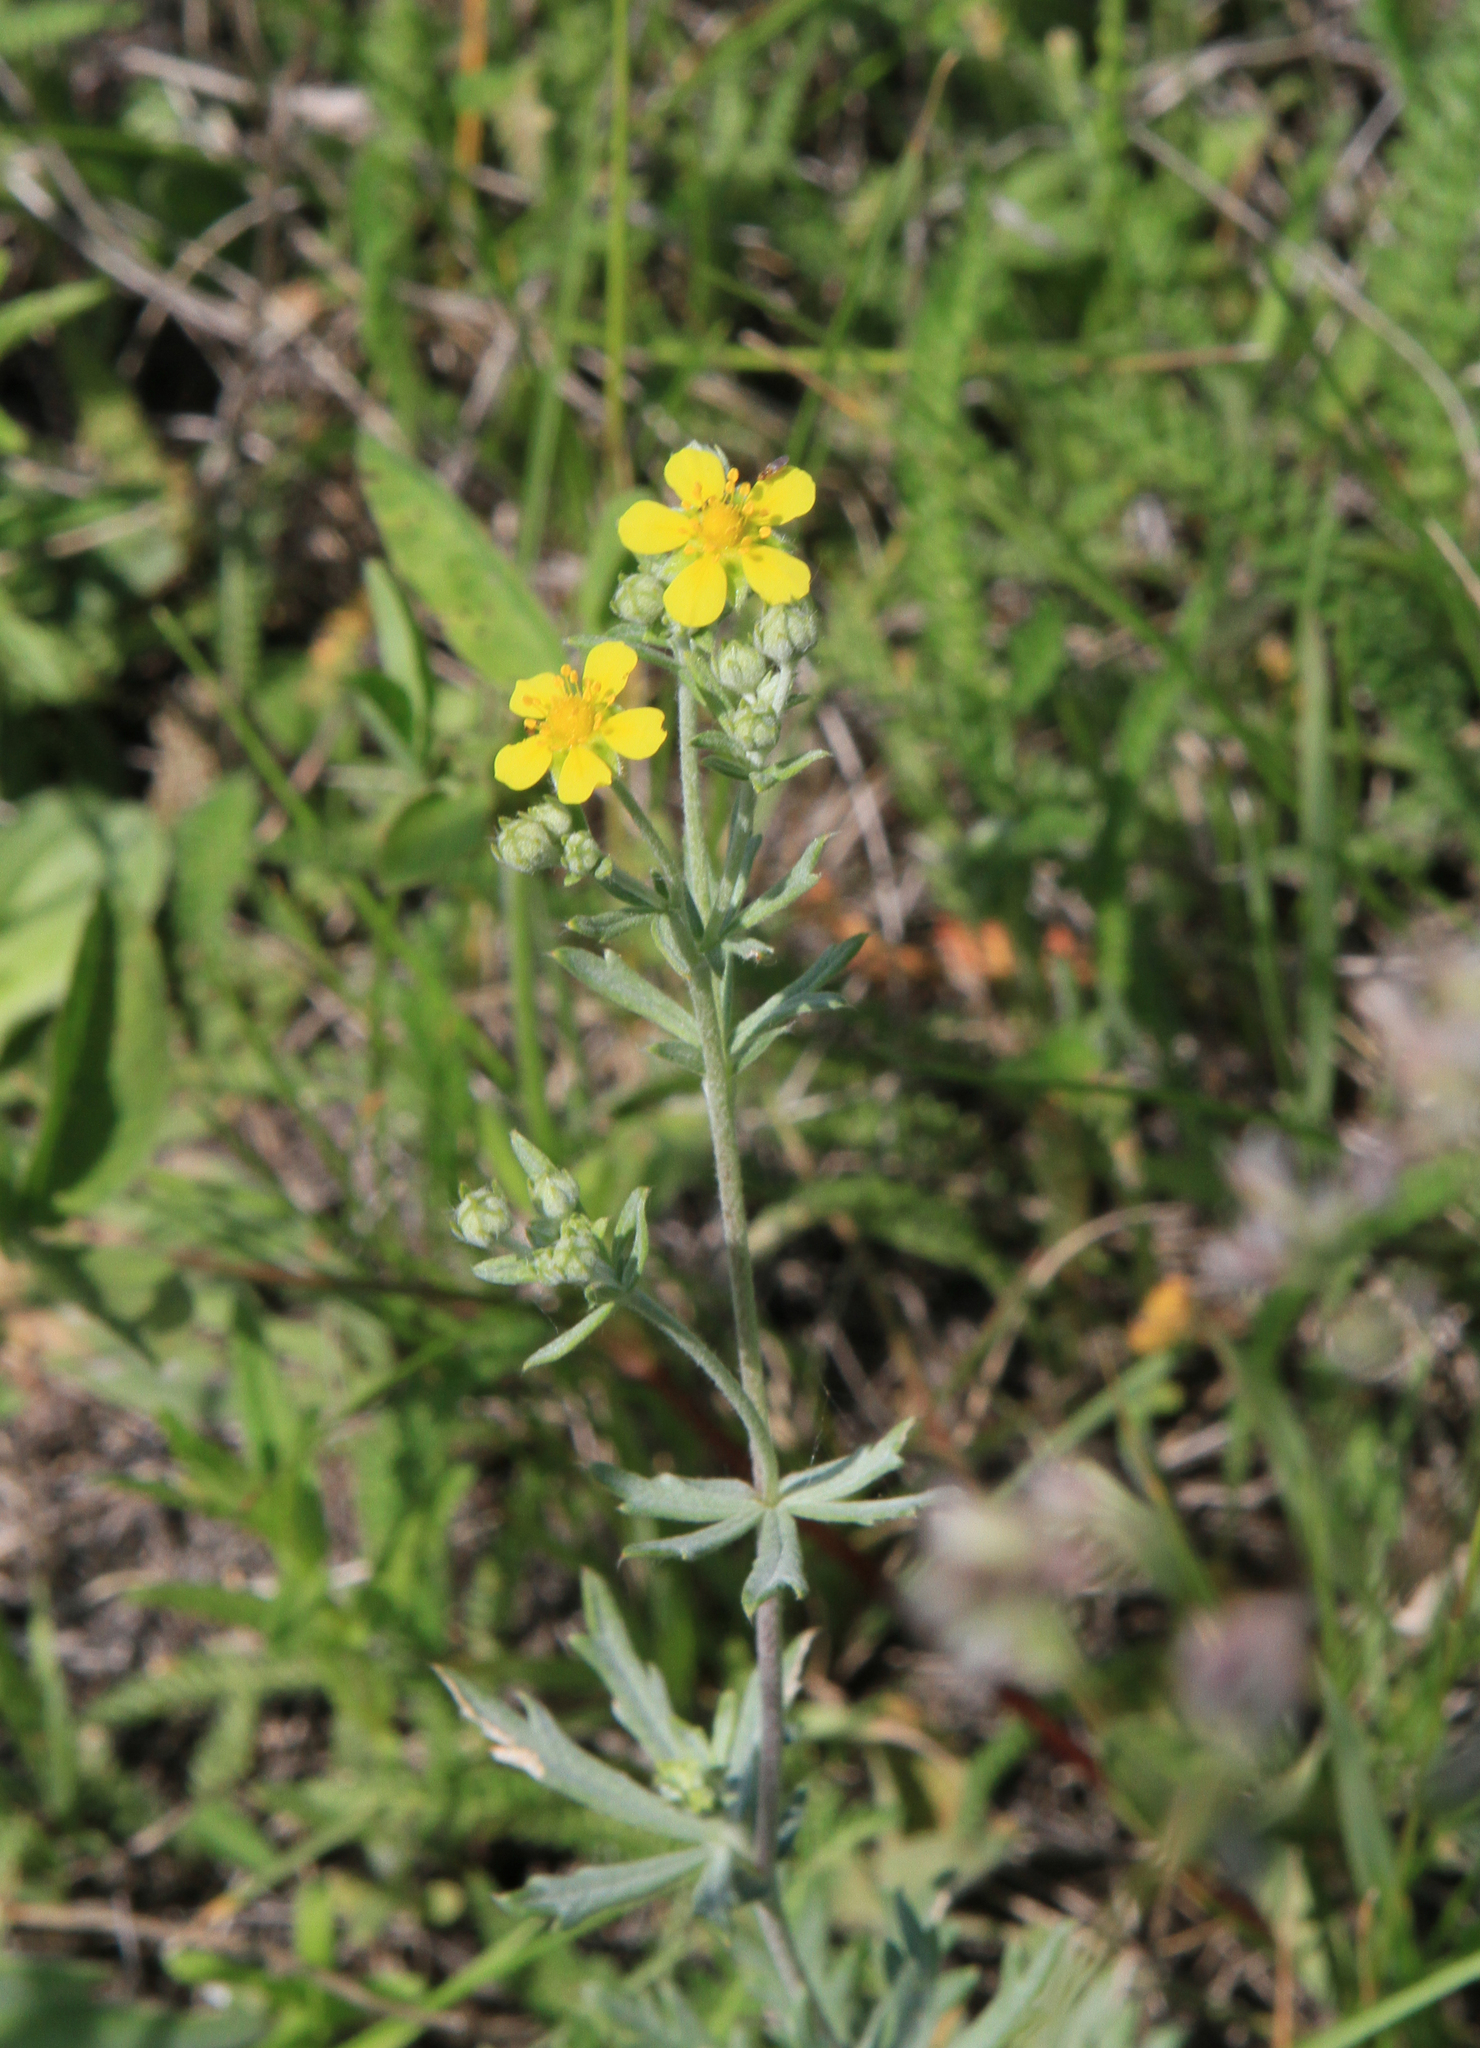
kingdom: Plantae
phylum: Tracheophyta
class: Magnoliopsida
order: Rosales
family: Rosaceae
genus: Potentilla
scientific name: Potentilla argentea
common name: Hoary cinquefoil
